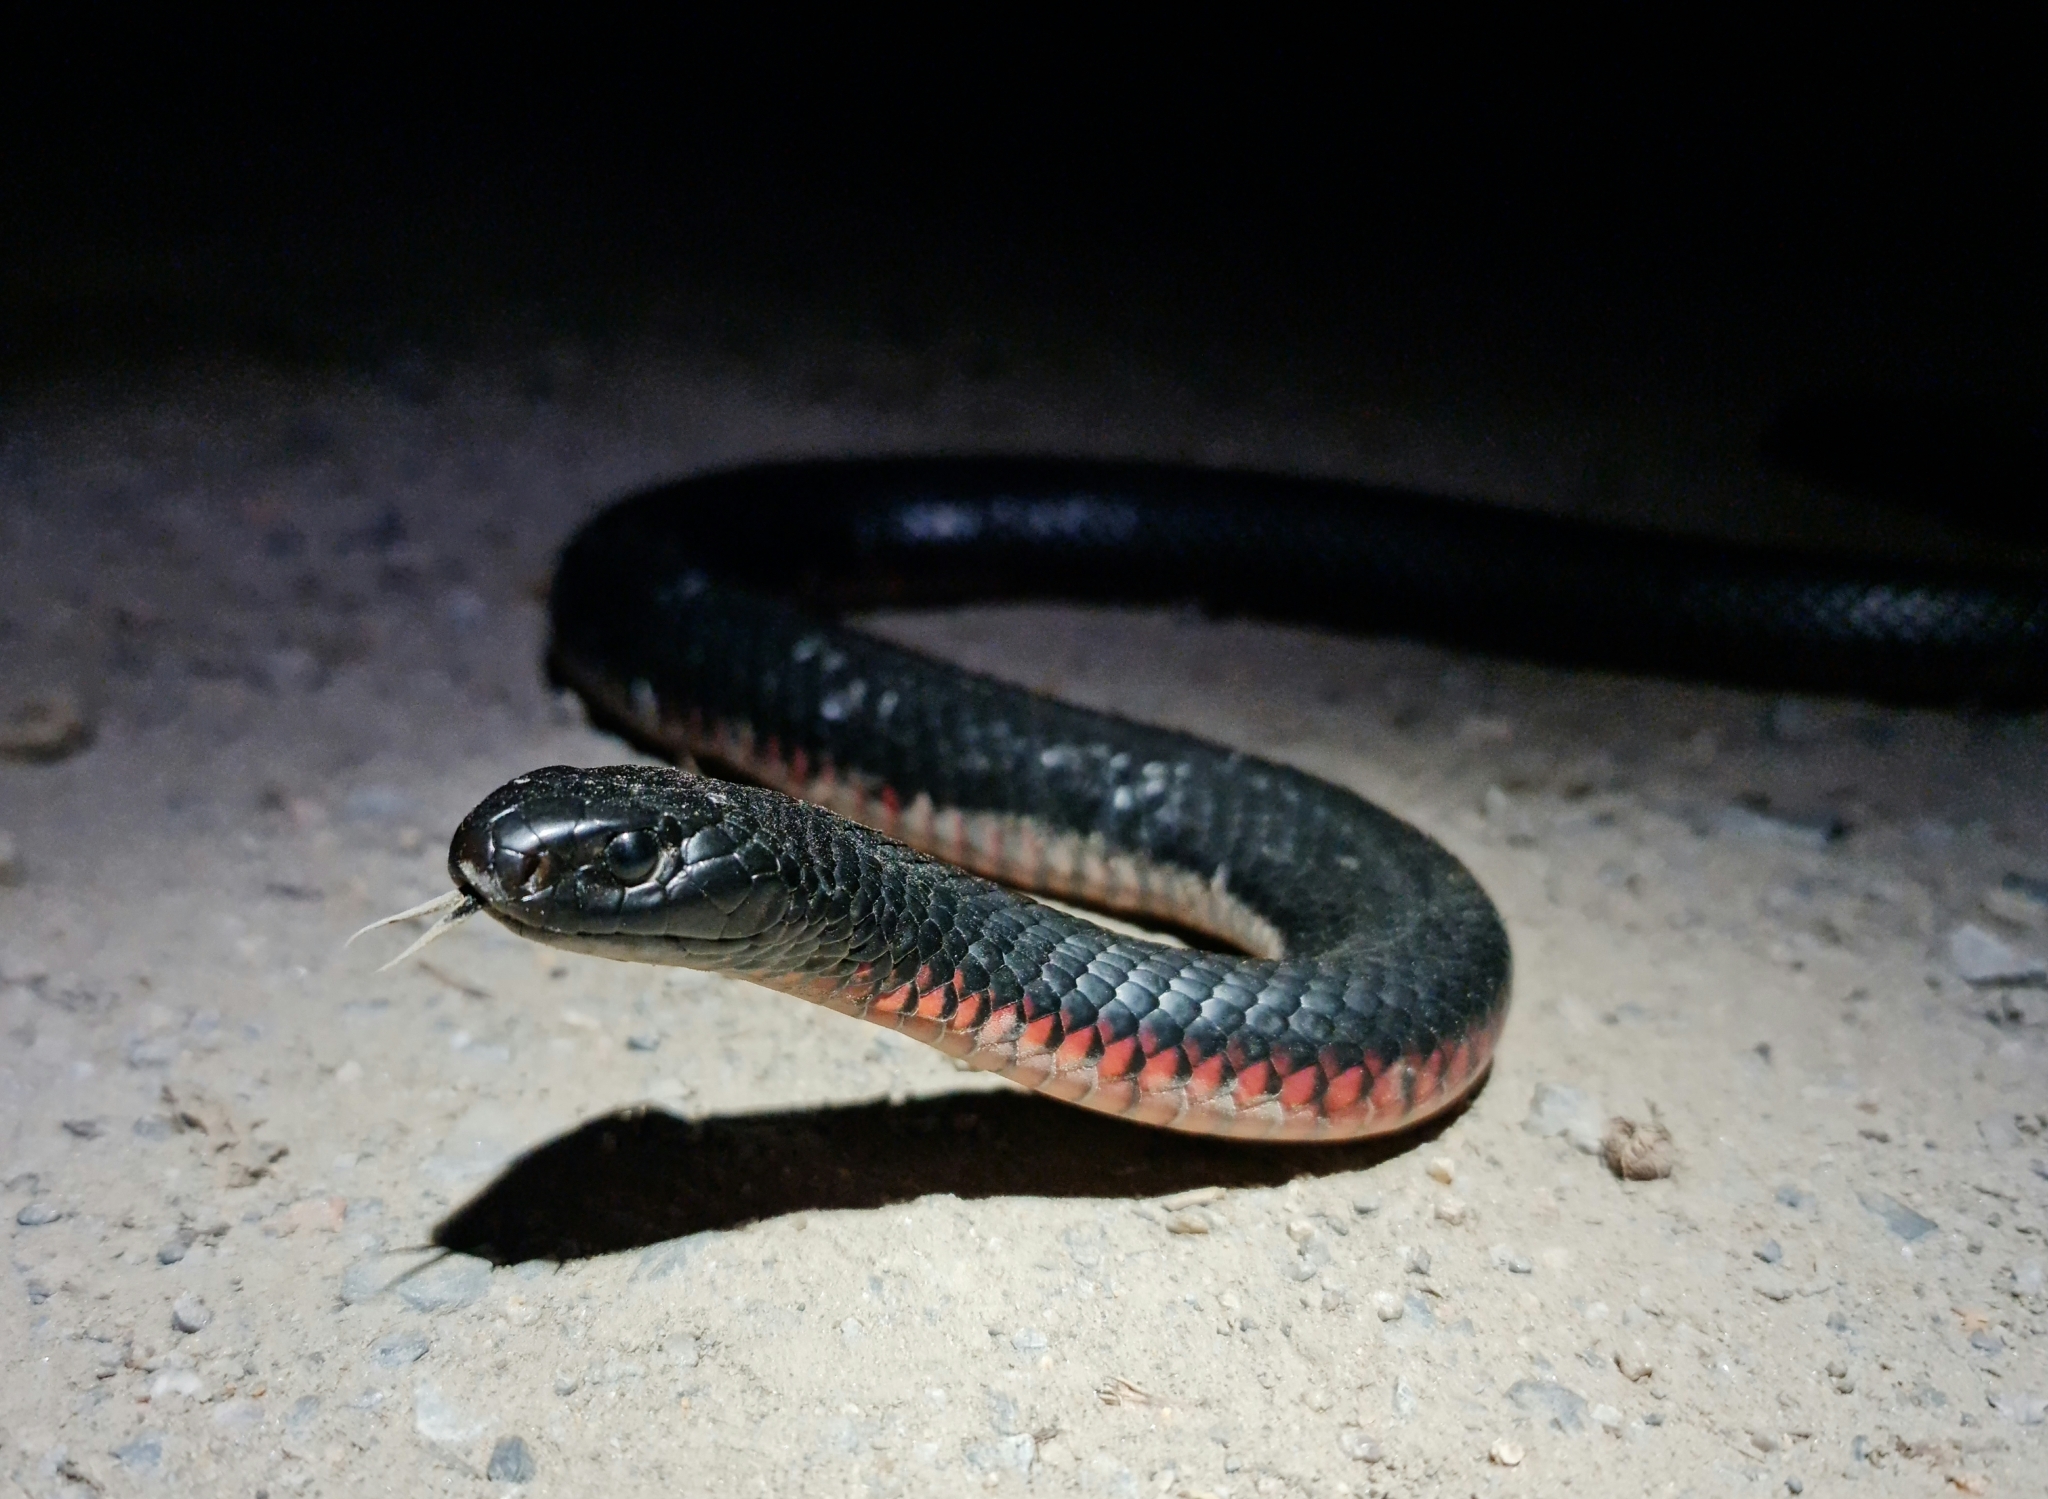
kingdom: Animalia
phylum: Chordata
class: Squamata
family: Elapidae
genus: Pseudechis
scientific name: Pseudechis porphyriacus
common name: Australian black snake
